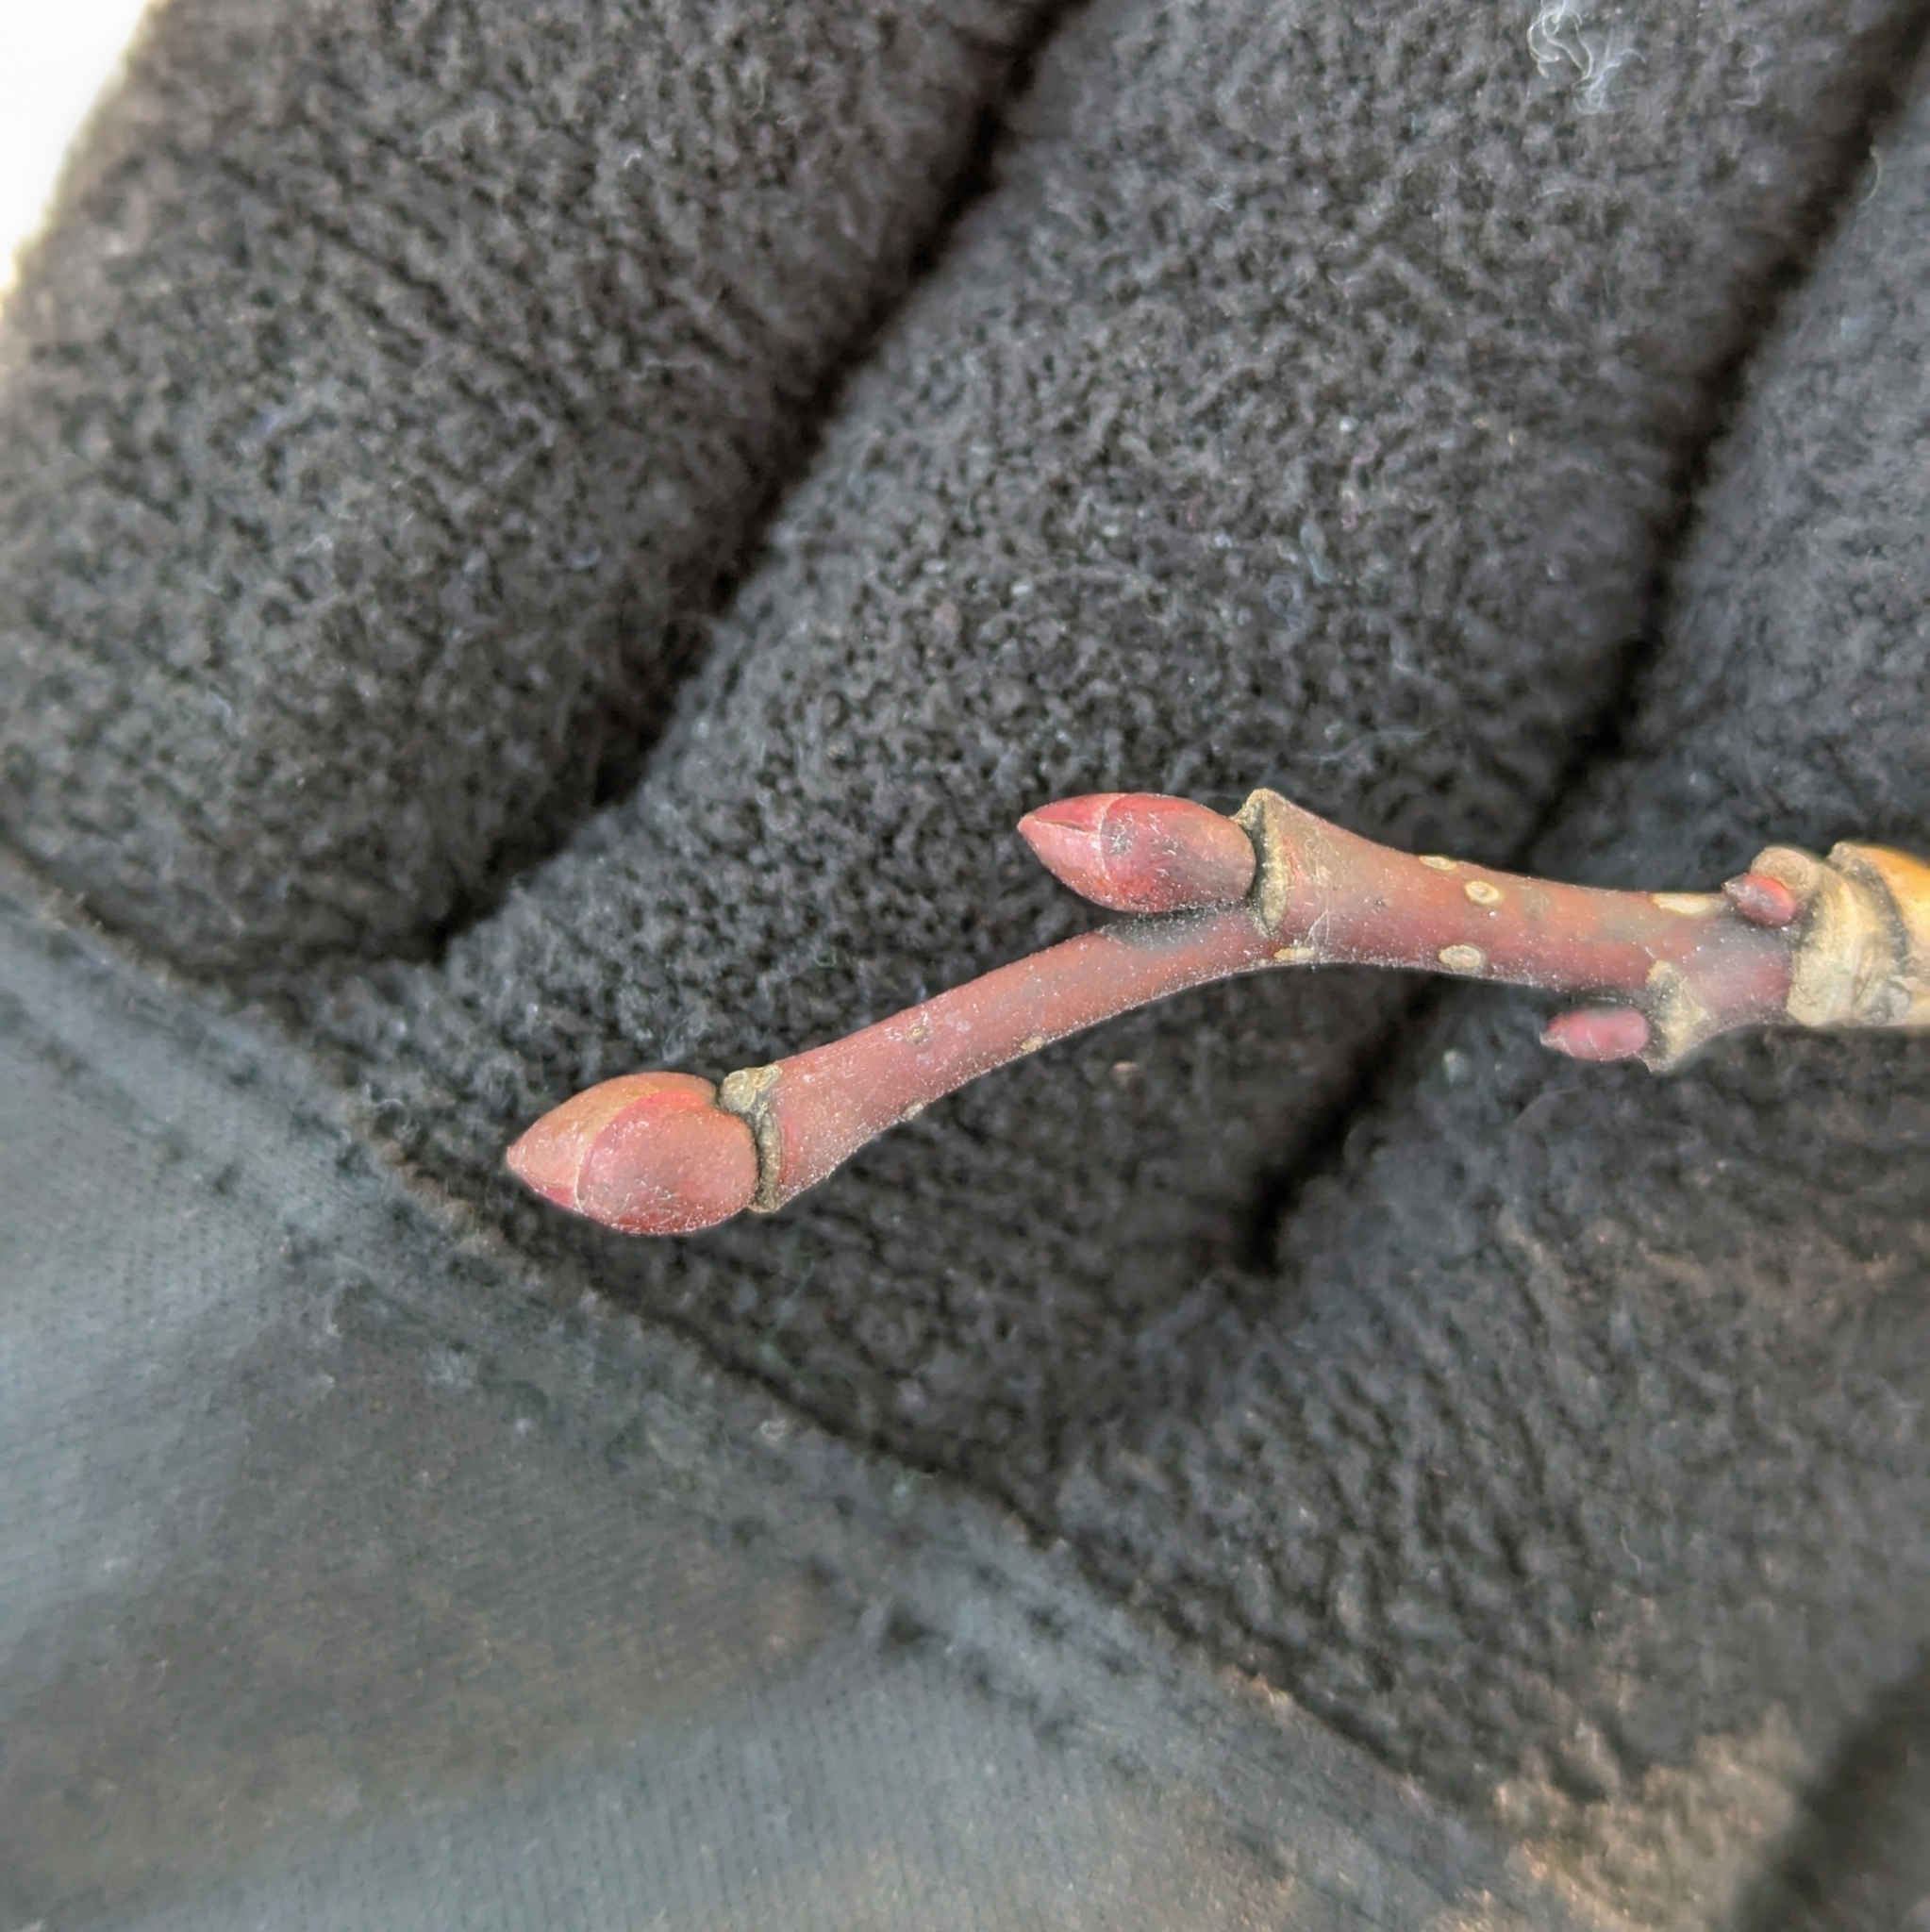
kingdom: Plantae
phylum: Tracheophyta
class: Magnoliopsida
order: Malvales
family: Malvaceae
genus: Tilia
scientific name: Tilia americana
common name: Basswood
